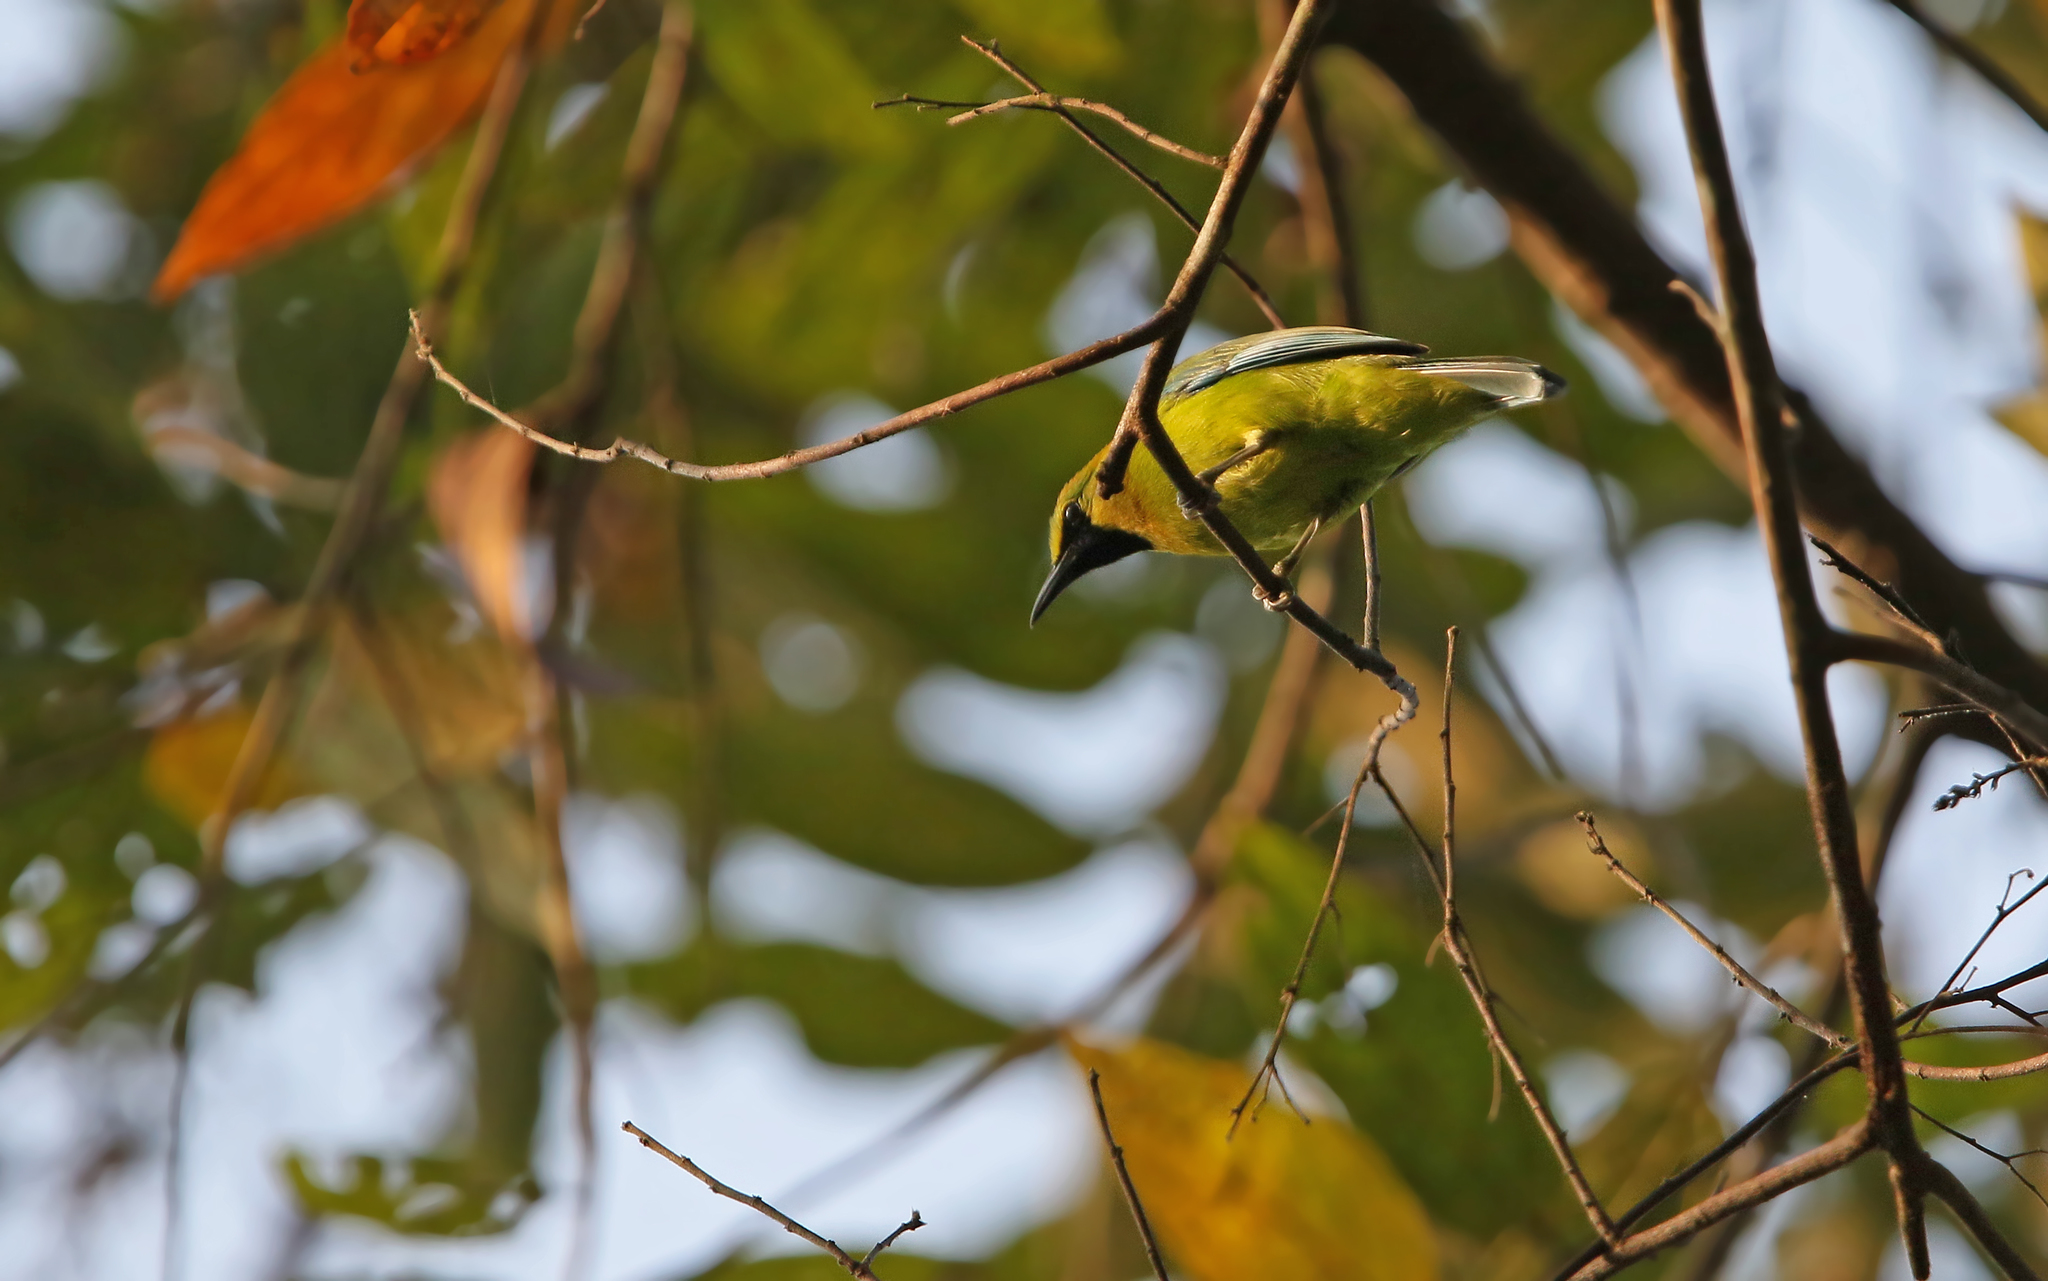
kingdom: Animalia
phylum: Chordata
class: Aves
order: Passeriformes
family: Chloropseidae
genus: Chloropsis
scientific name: Chloropsis moluccensis
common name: Blue-winged leafbird
